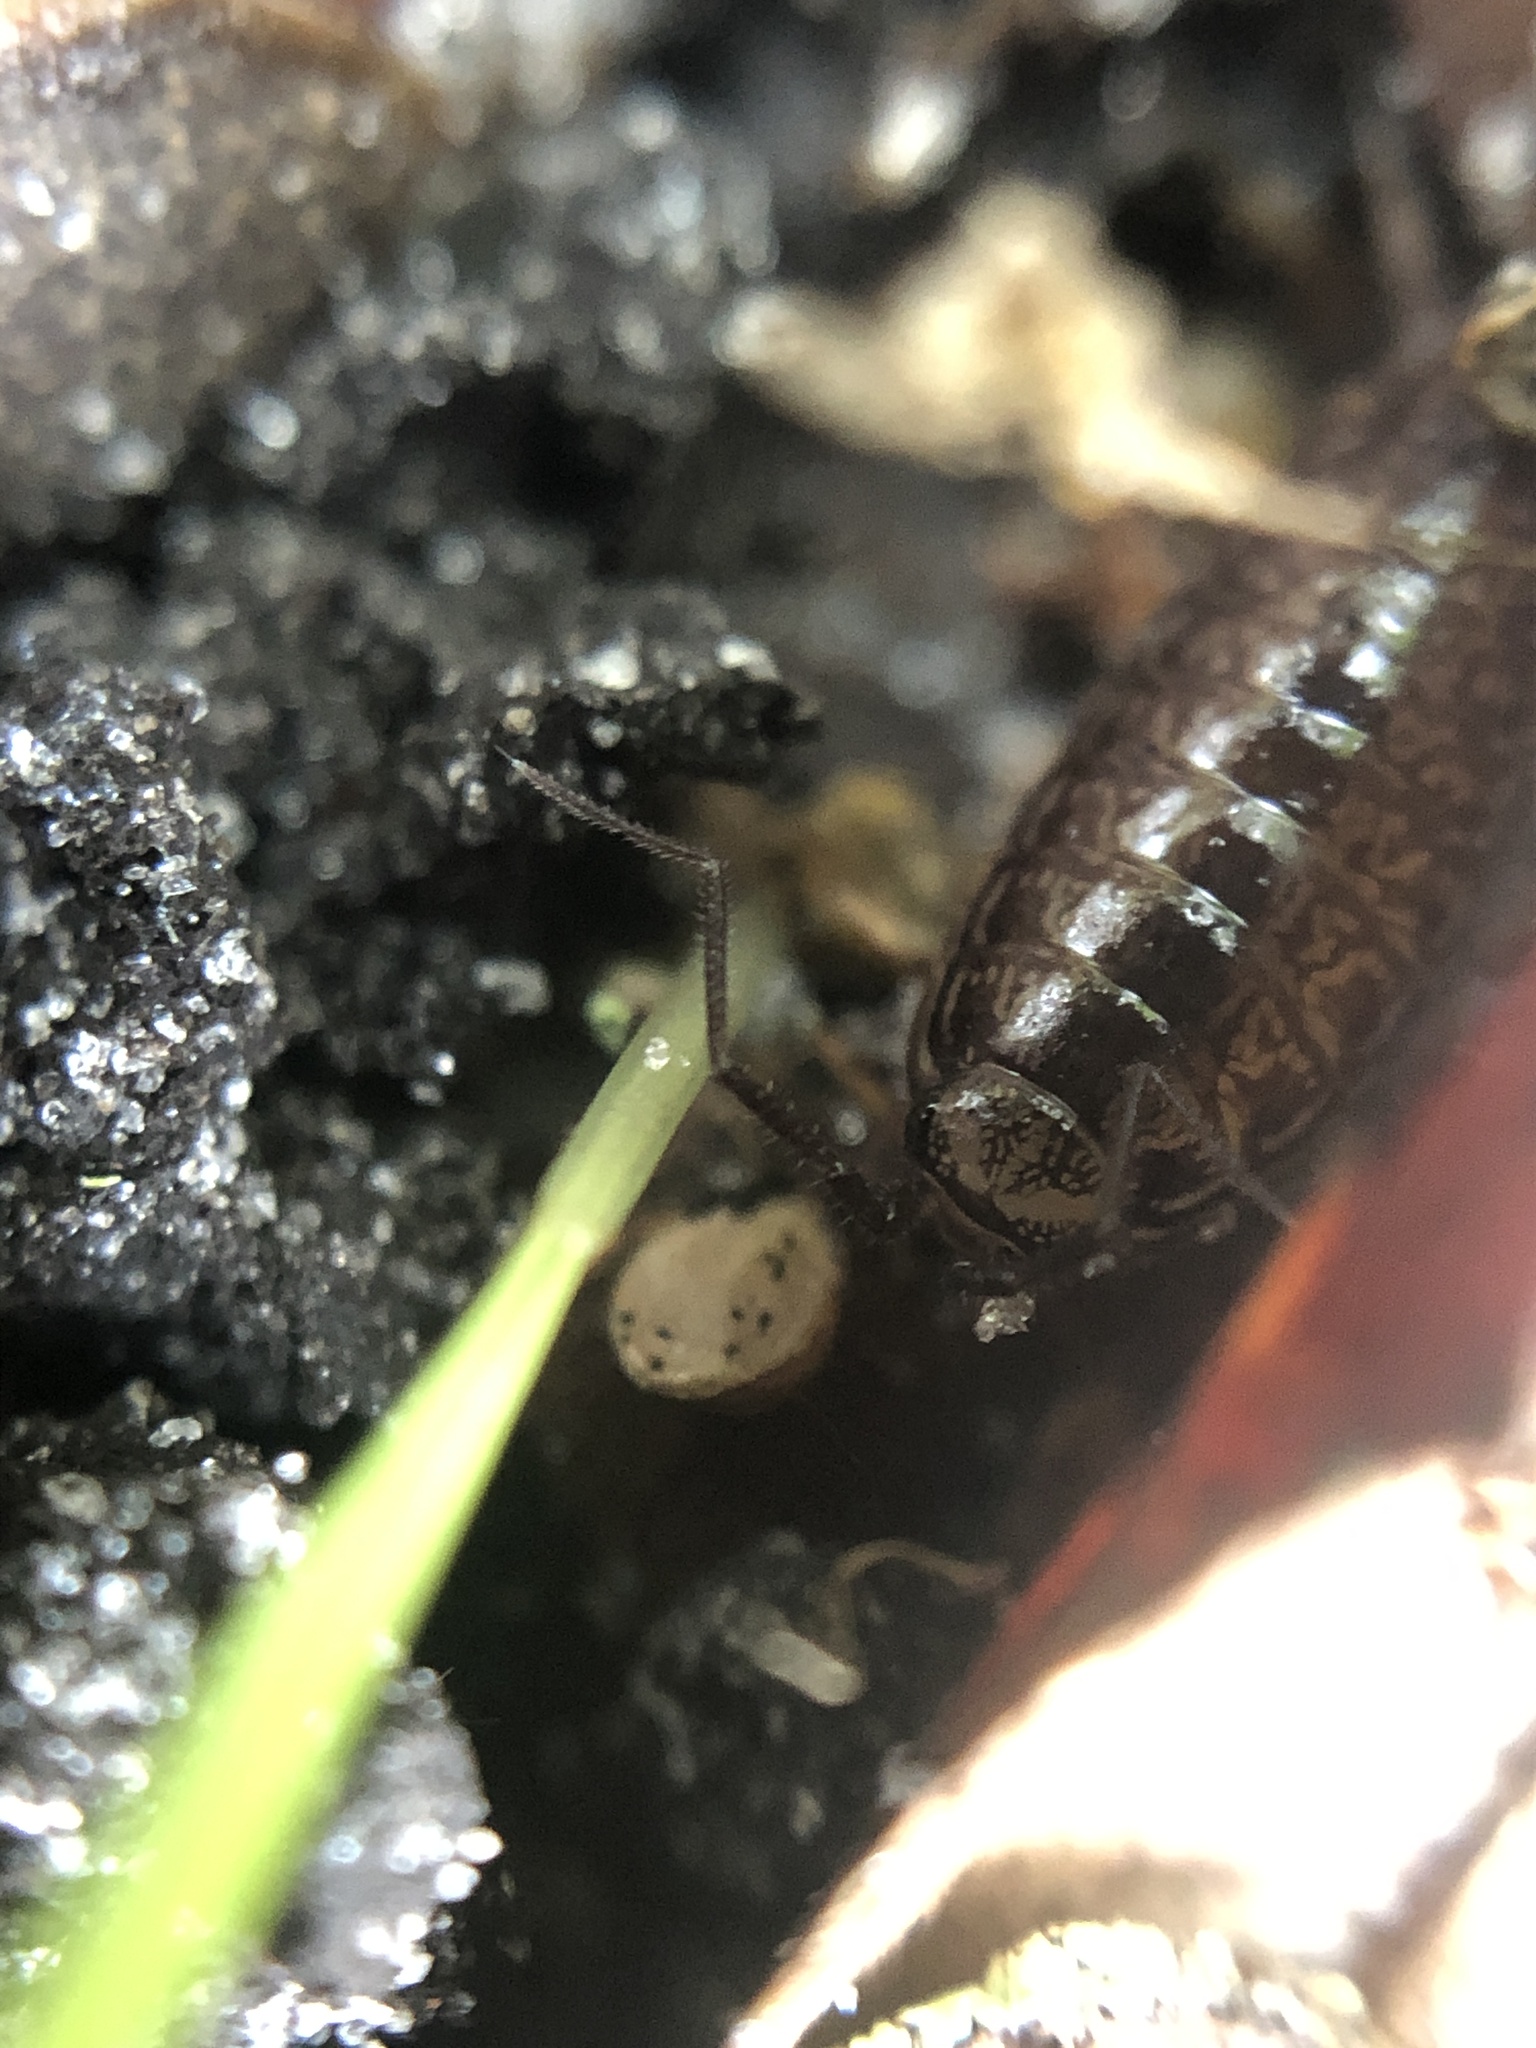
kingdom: Animalia
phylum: Arthropoda
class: Malacostraca
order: Isopoda
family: Philosciidae
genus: Atlantoscia
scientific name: Atlantoscia floridana
